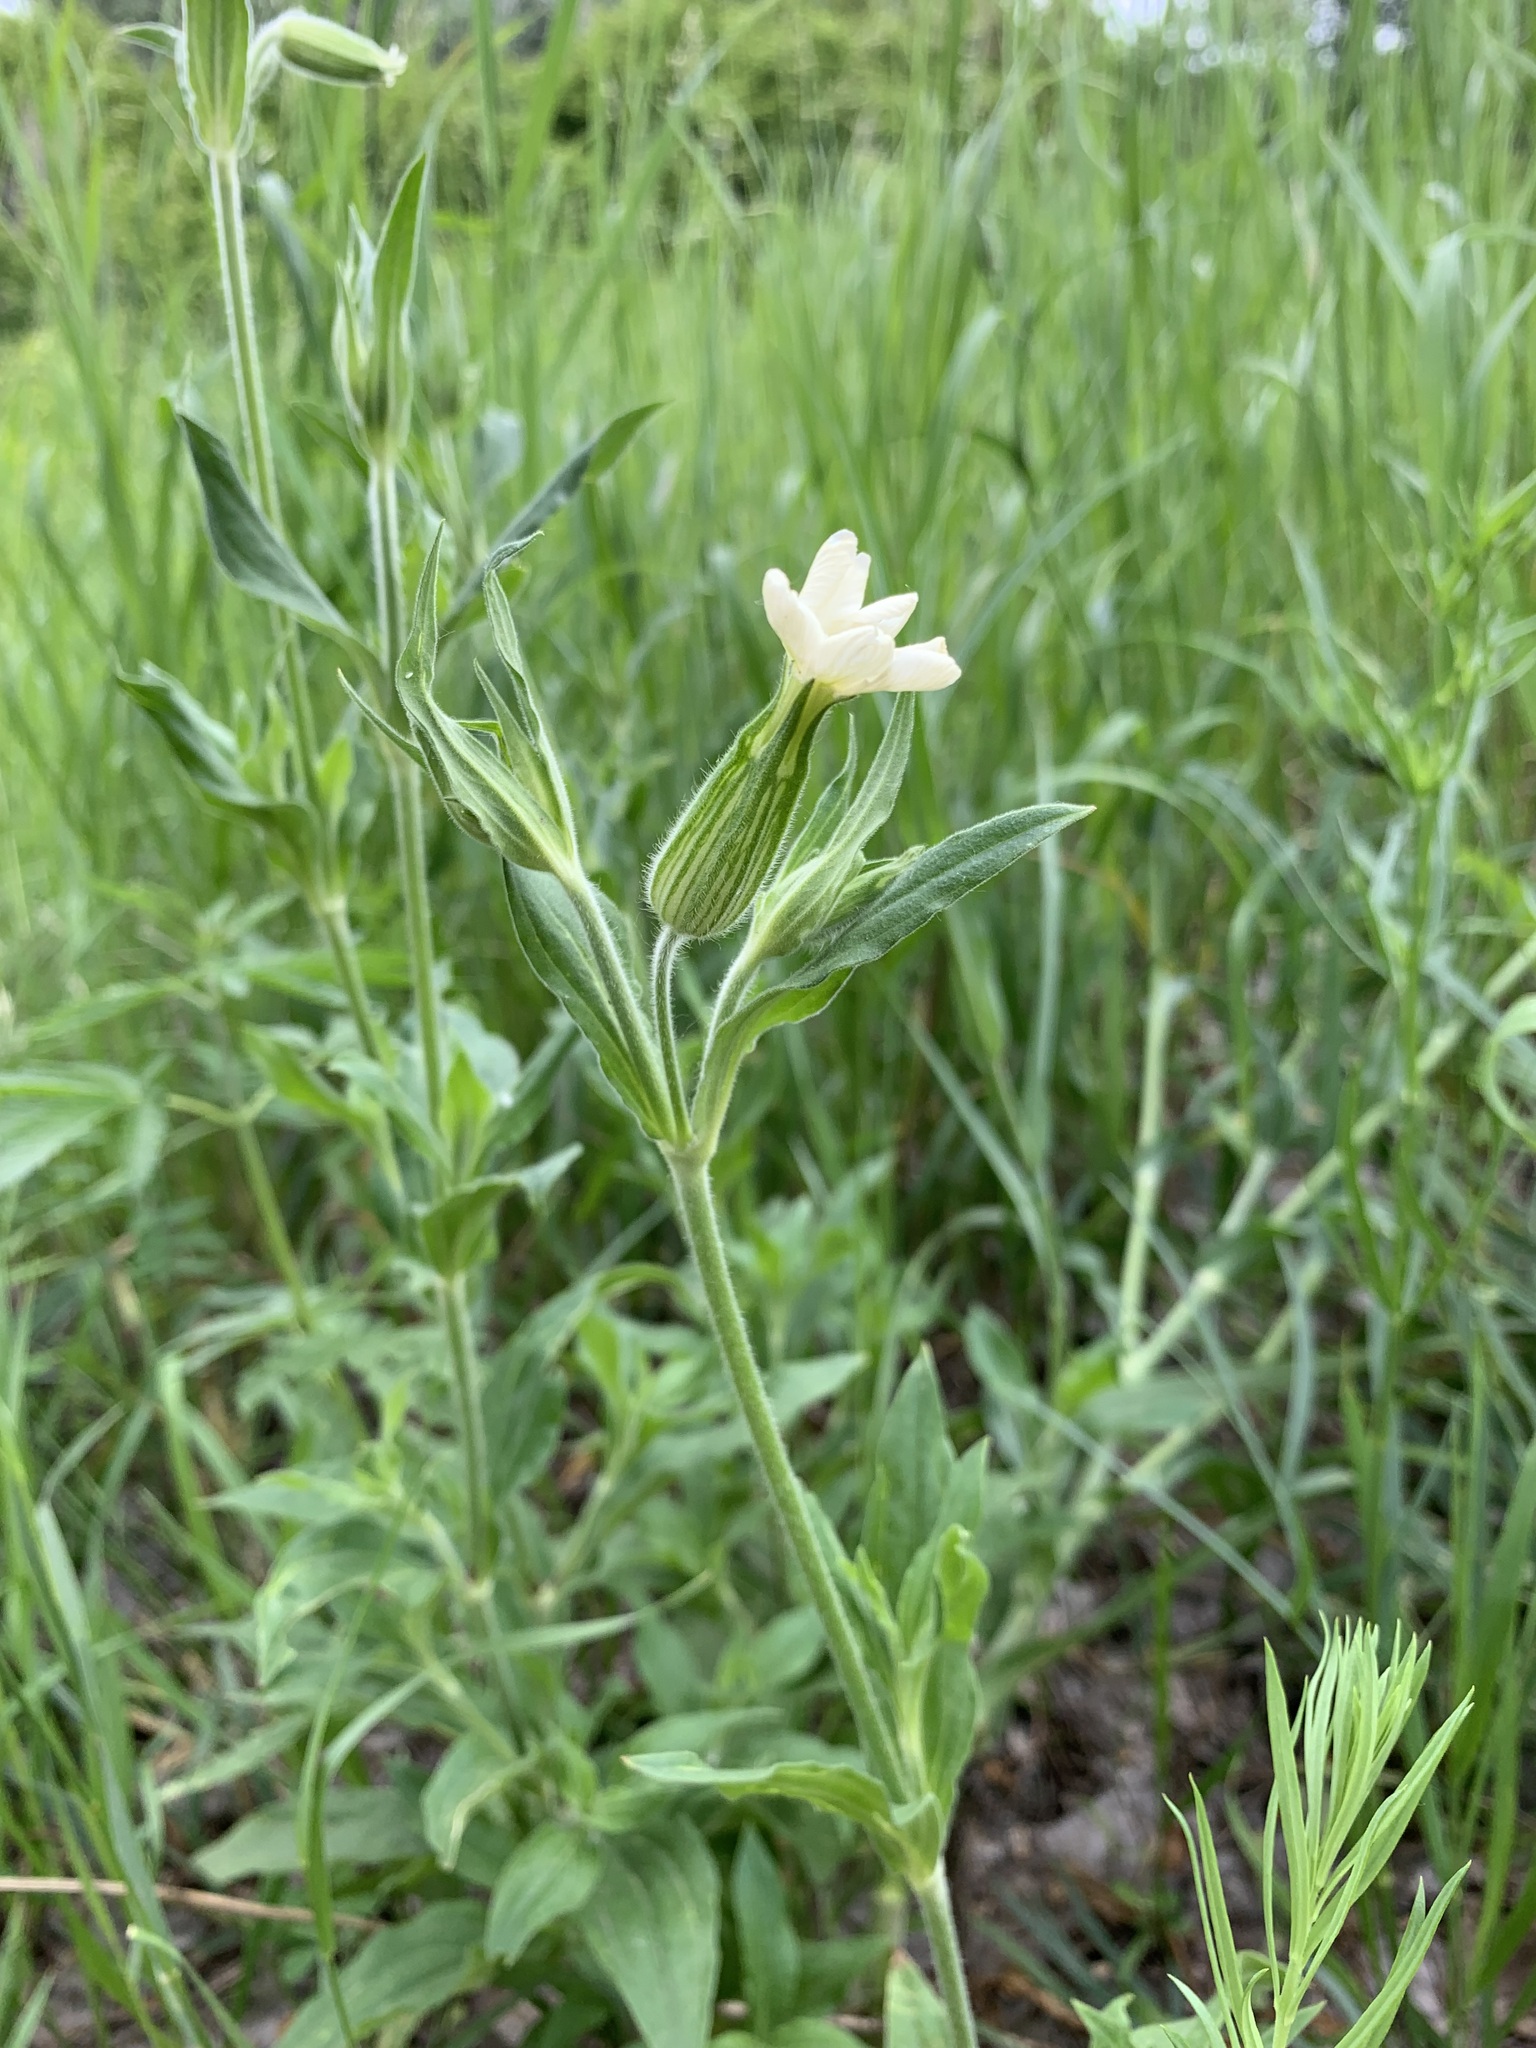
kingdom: Plantae
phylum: Tracheophyta
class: Magnoliopsida
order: Caryophyllales
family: Caryophyllaceae
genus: Silene
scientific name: Silene latifolia
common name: White campion
